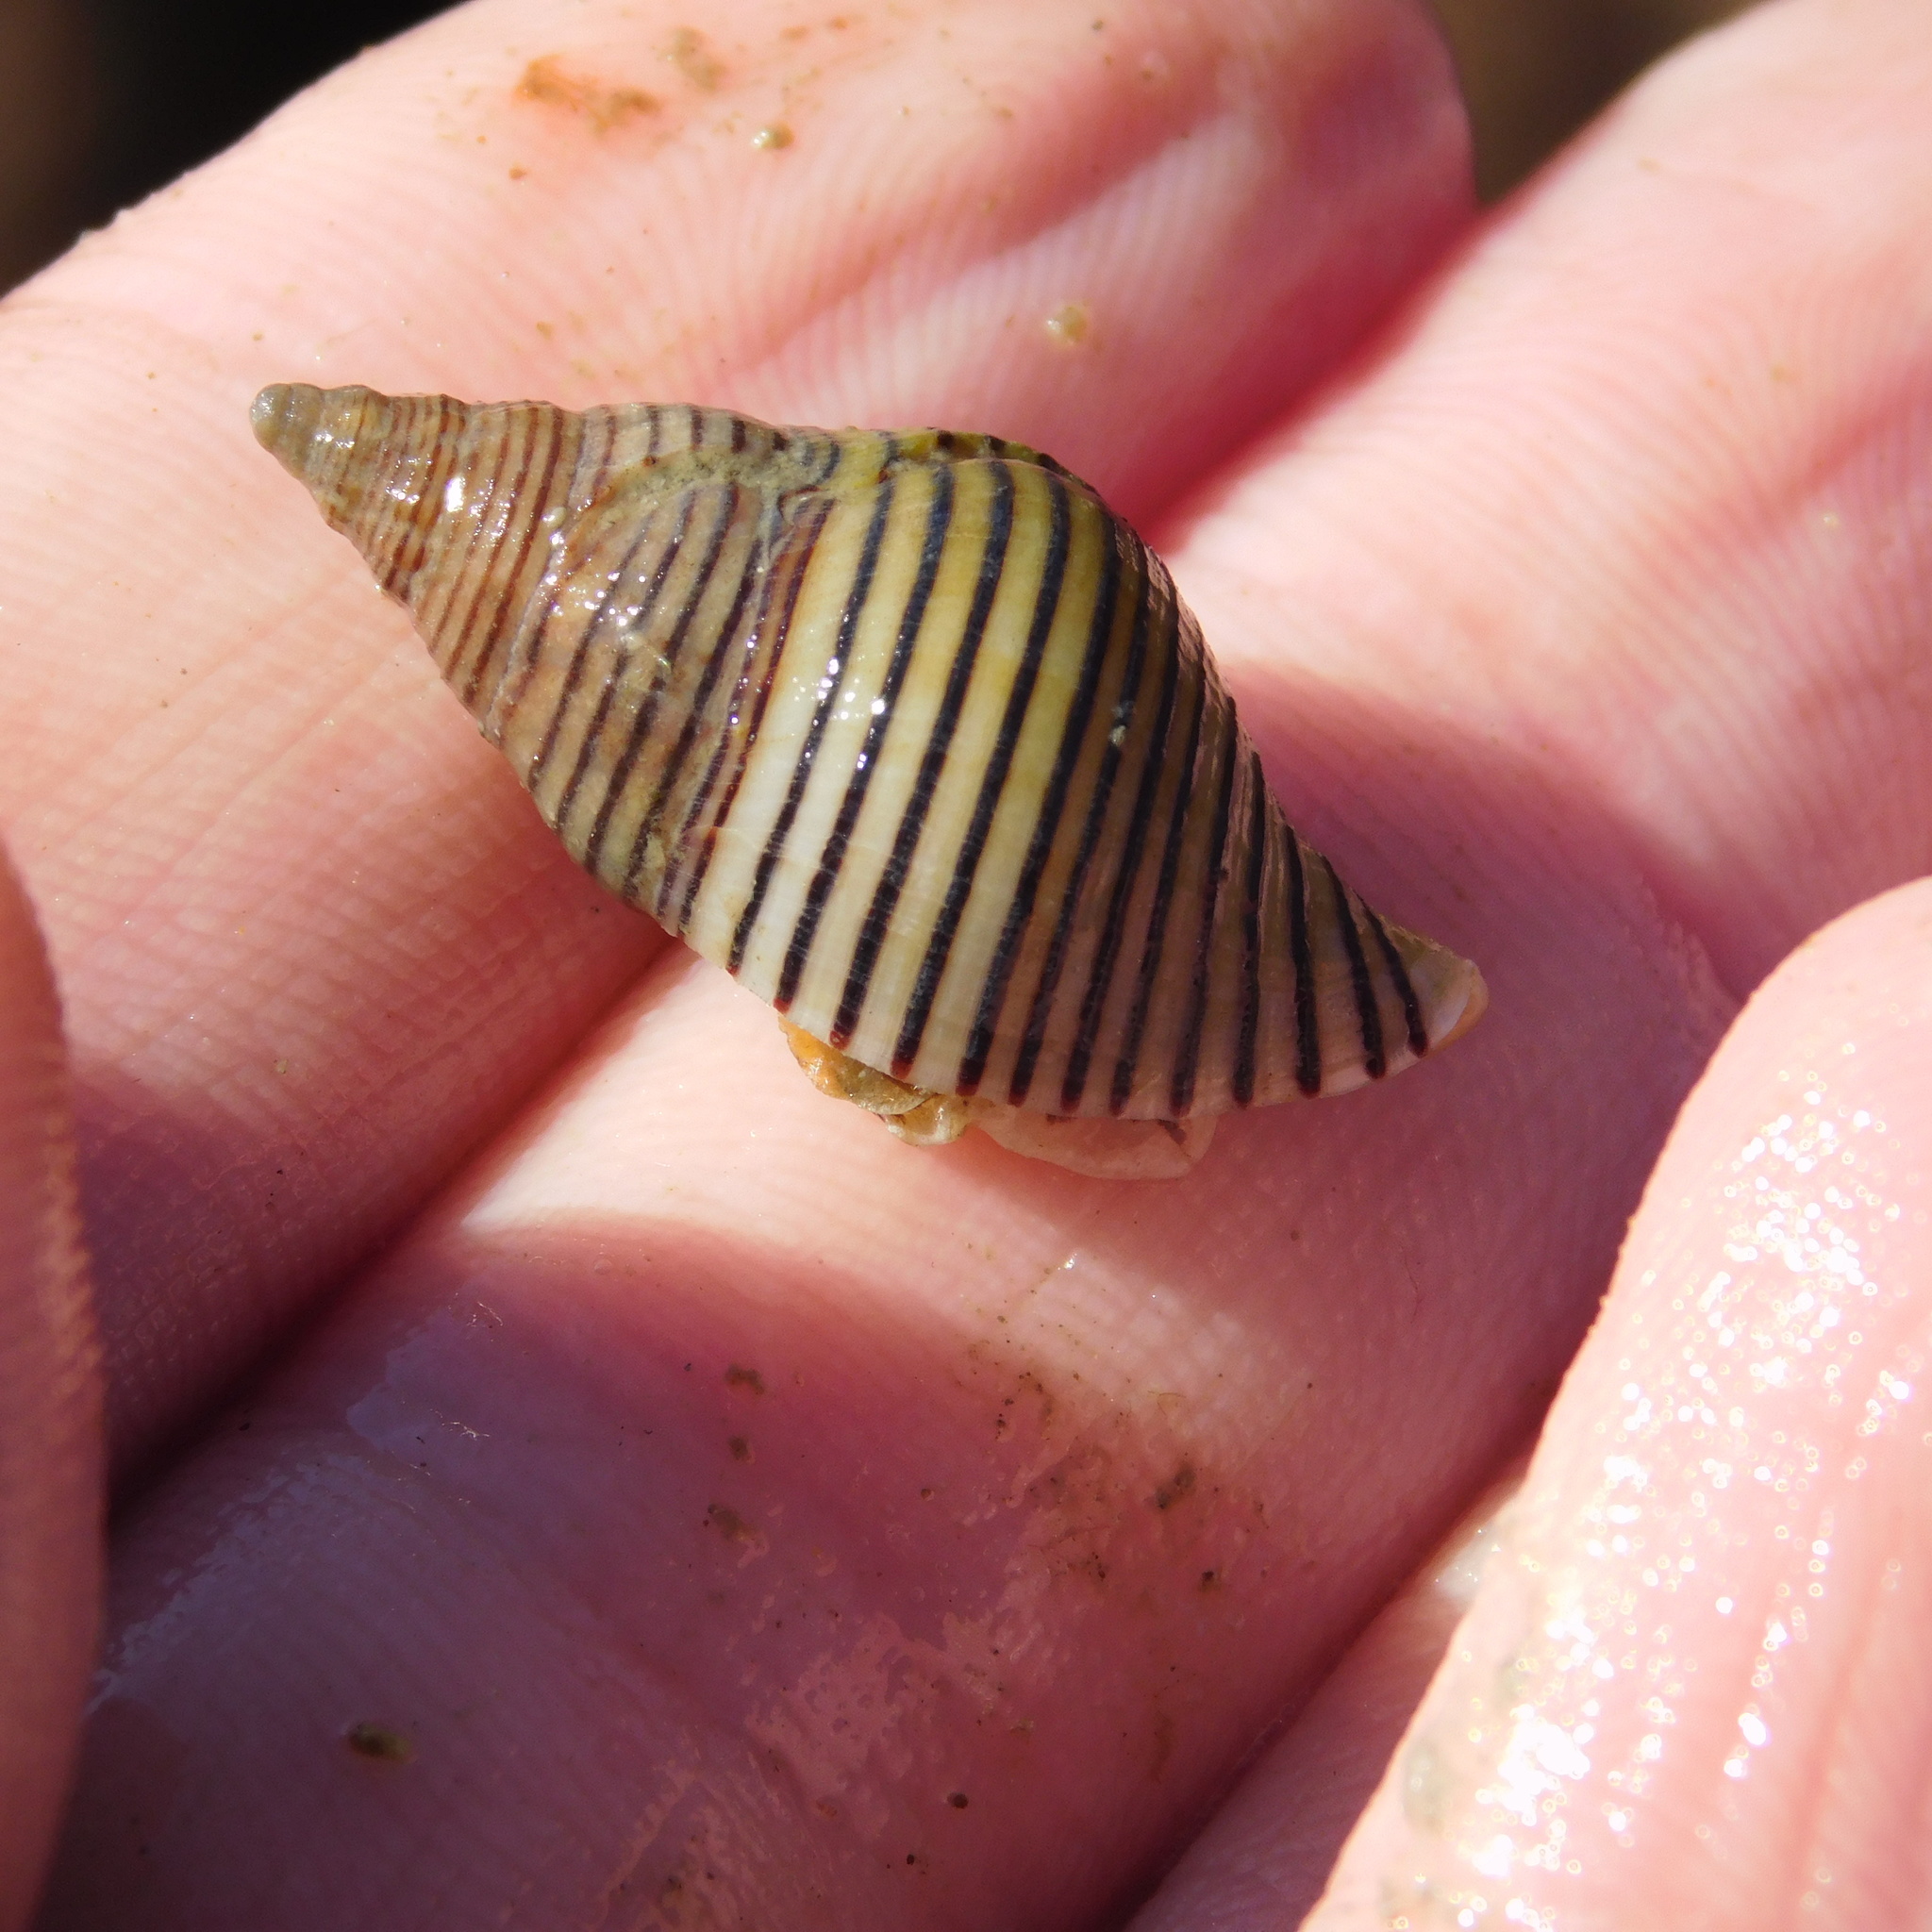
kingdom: Animalia
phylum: Mollusca
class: Gastropoda
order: Neogastropoda
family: Tudiclidae
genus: Buccinulum
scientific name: Buccinulum linea
